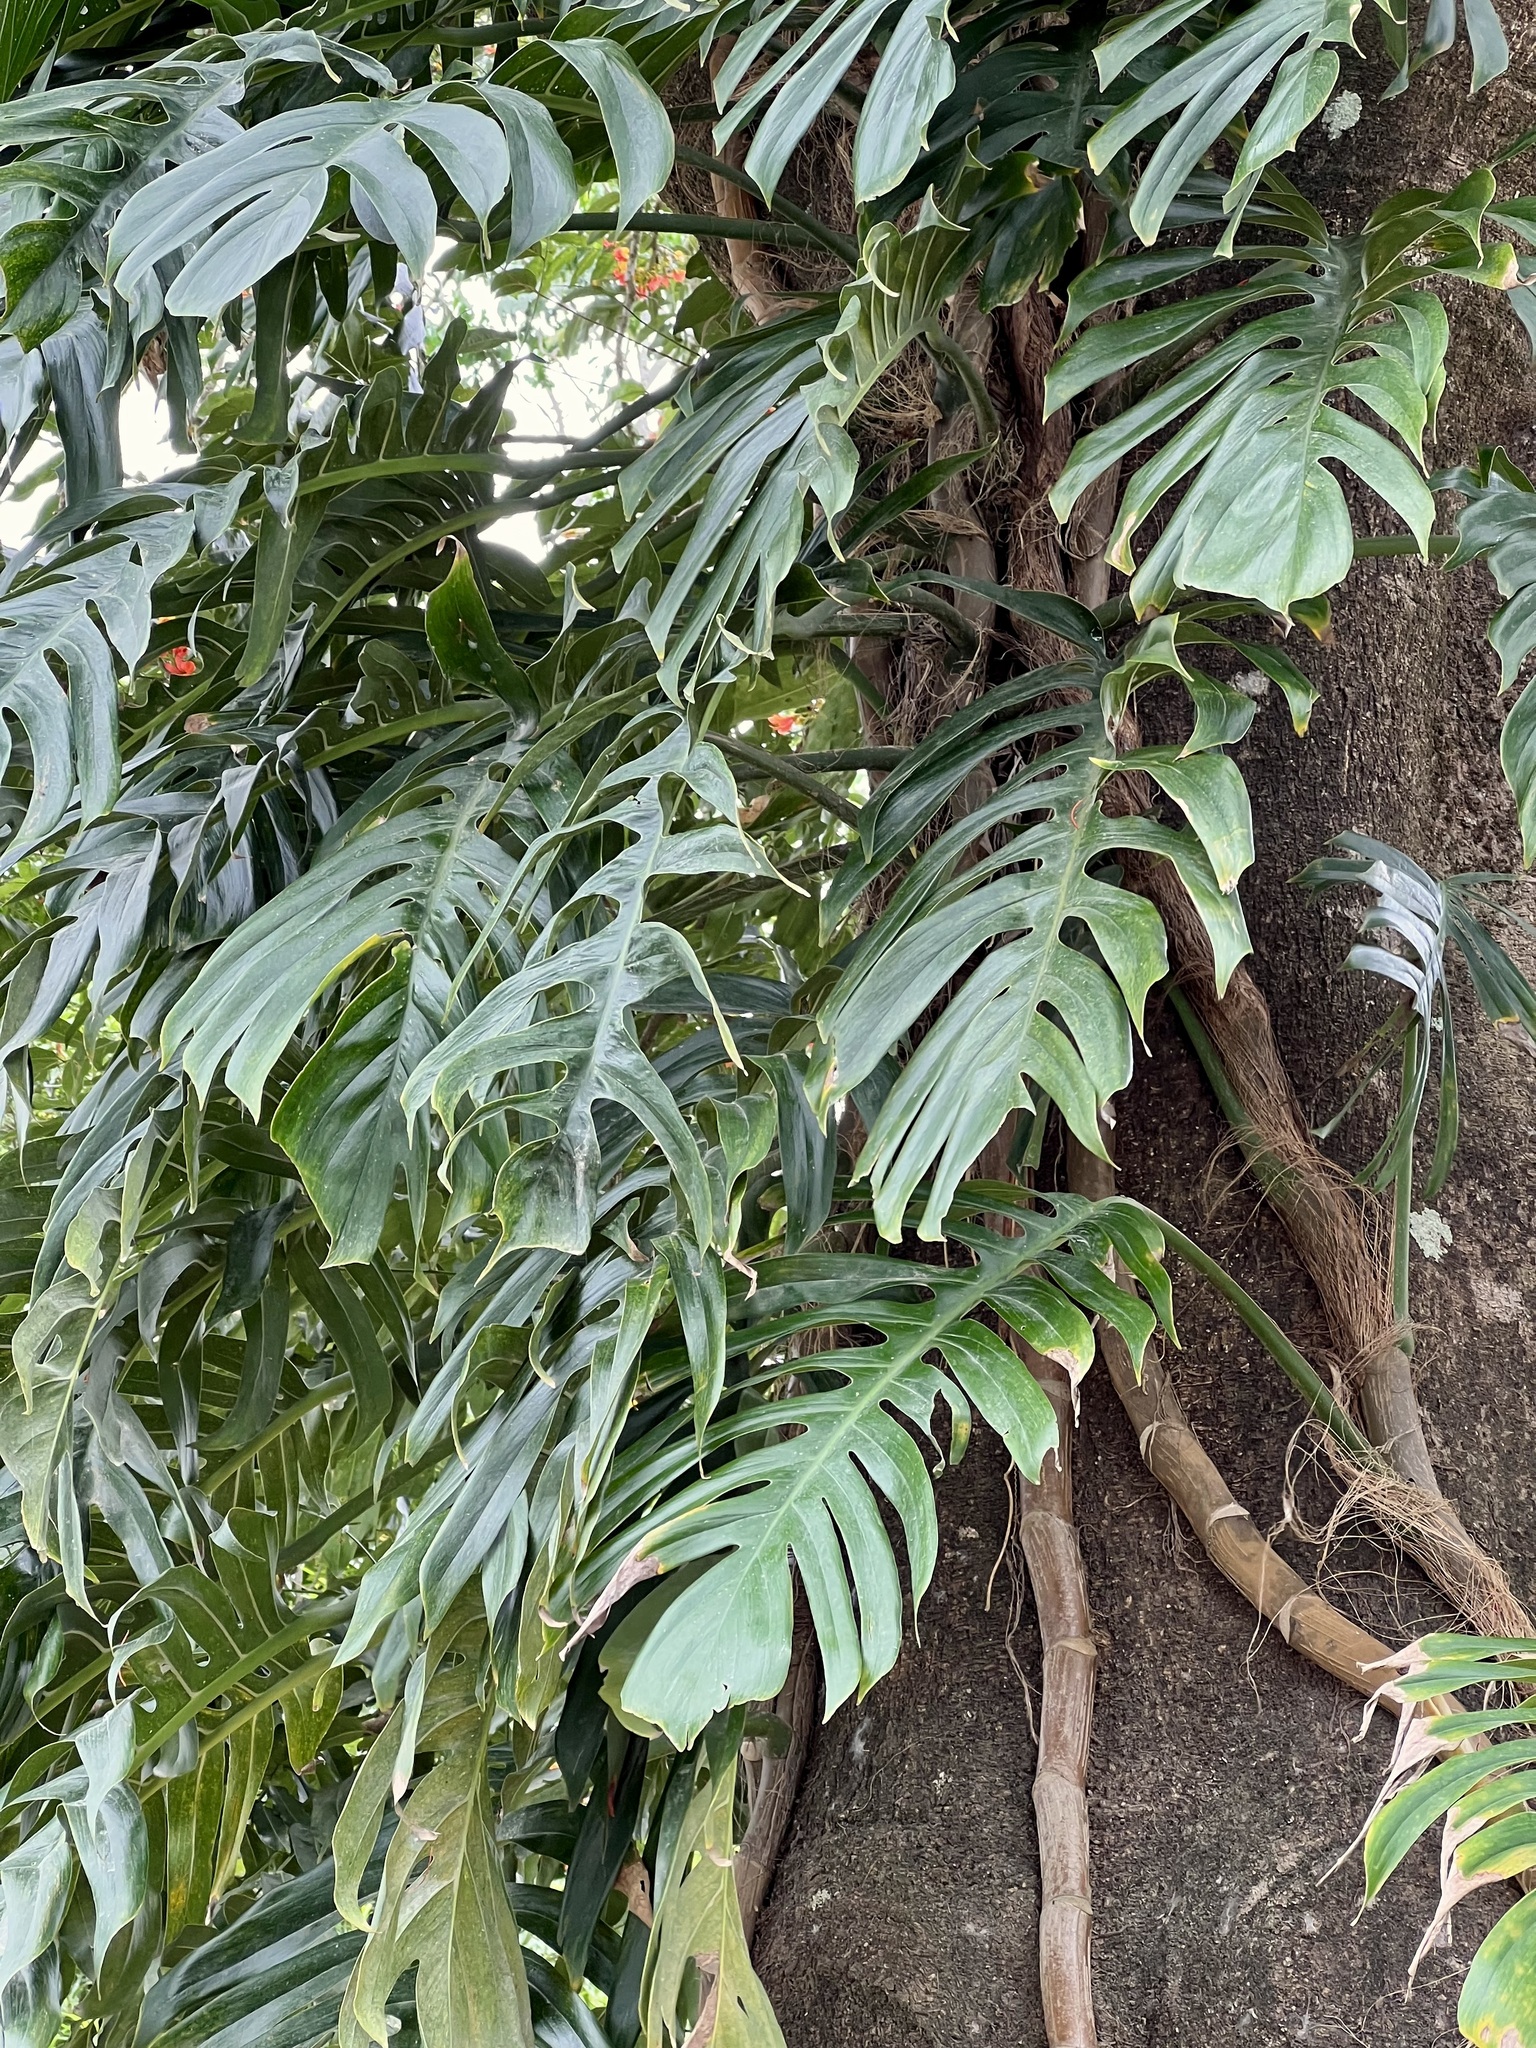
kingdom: Plantae
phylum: Tracheophyta
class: Liliopsida
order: Alismatales
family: Araceae
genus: Epipremnum
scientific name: Epipremnum pinnatum
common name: Centipede tongavine
